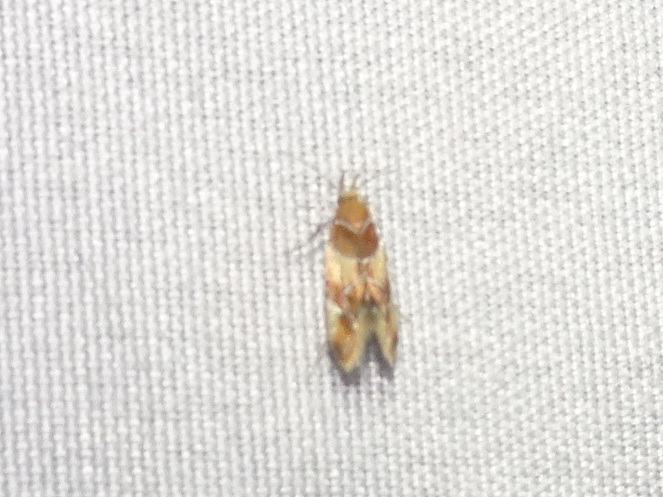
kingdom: Animalia
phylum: Arthropoda
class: Insecta
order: Lepidoptera
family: Oecophoridae
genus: Callima
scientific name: Callima argenticinctella
